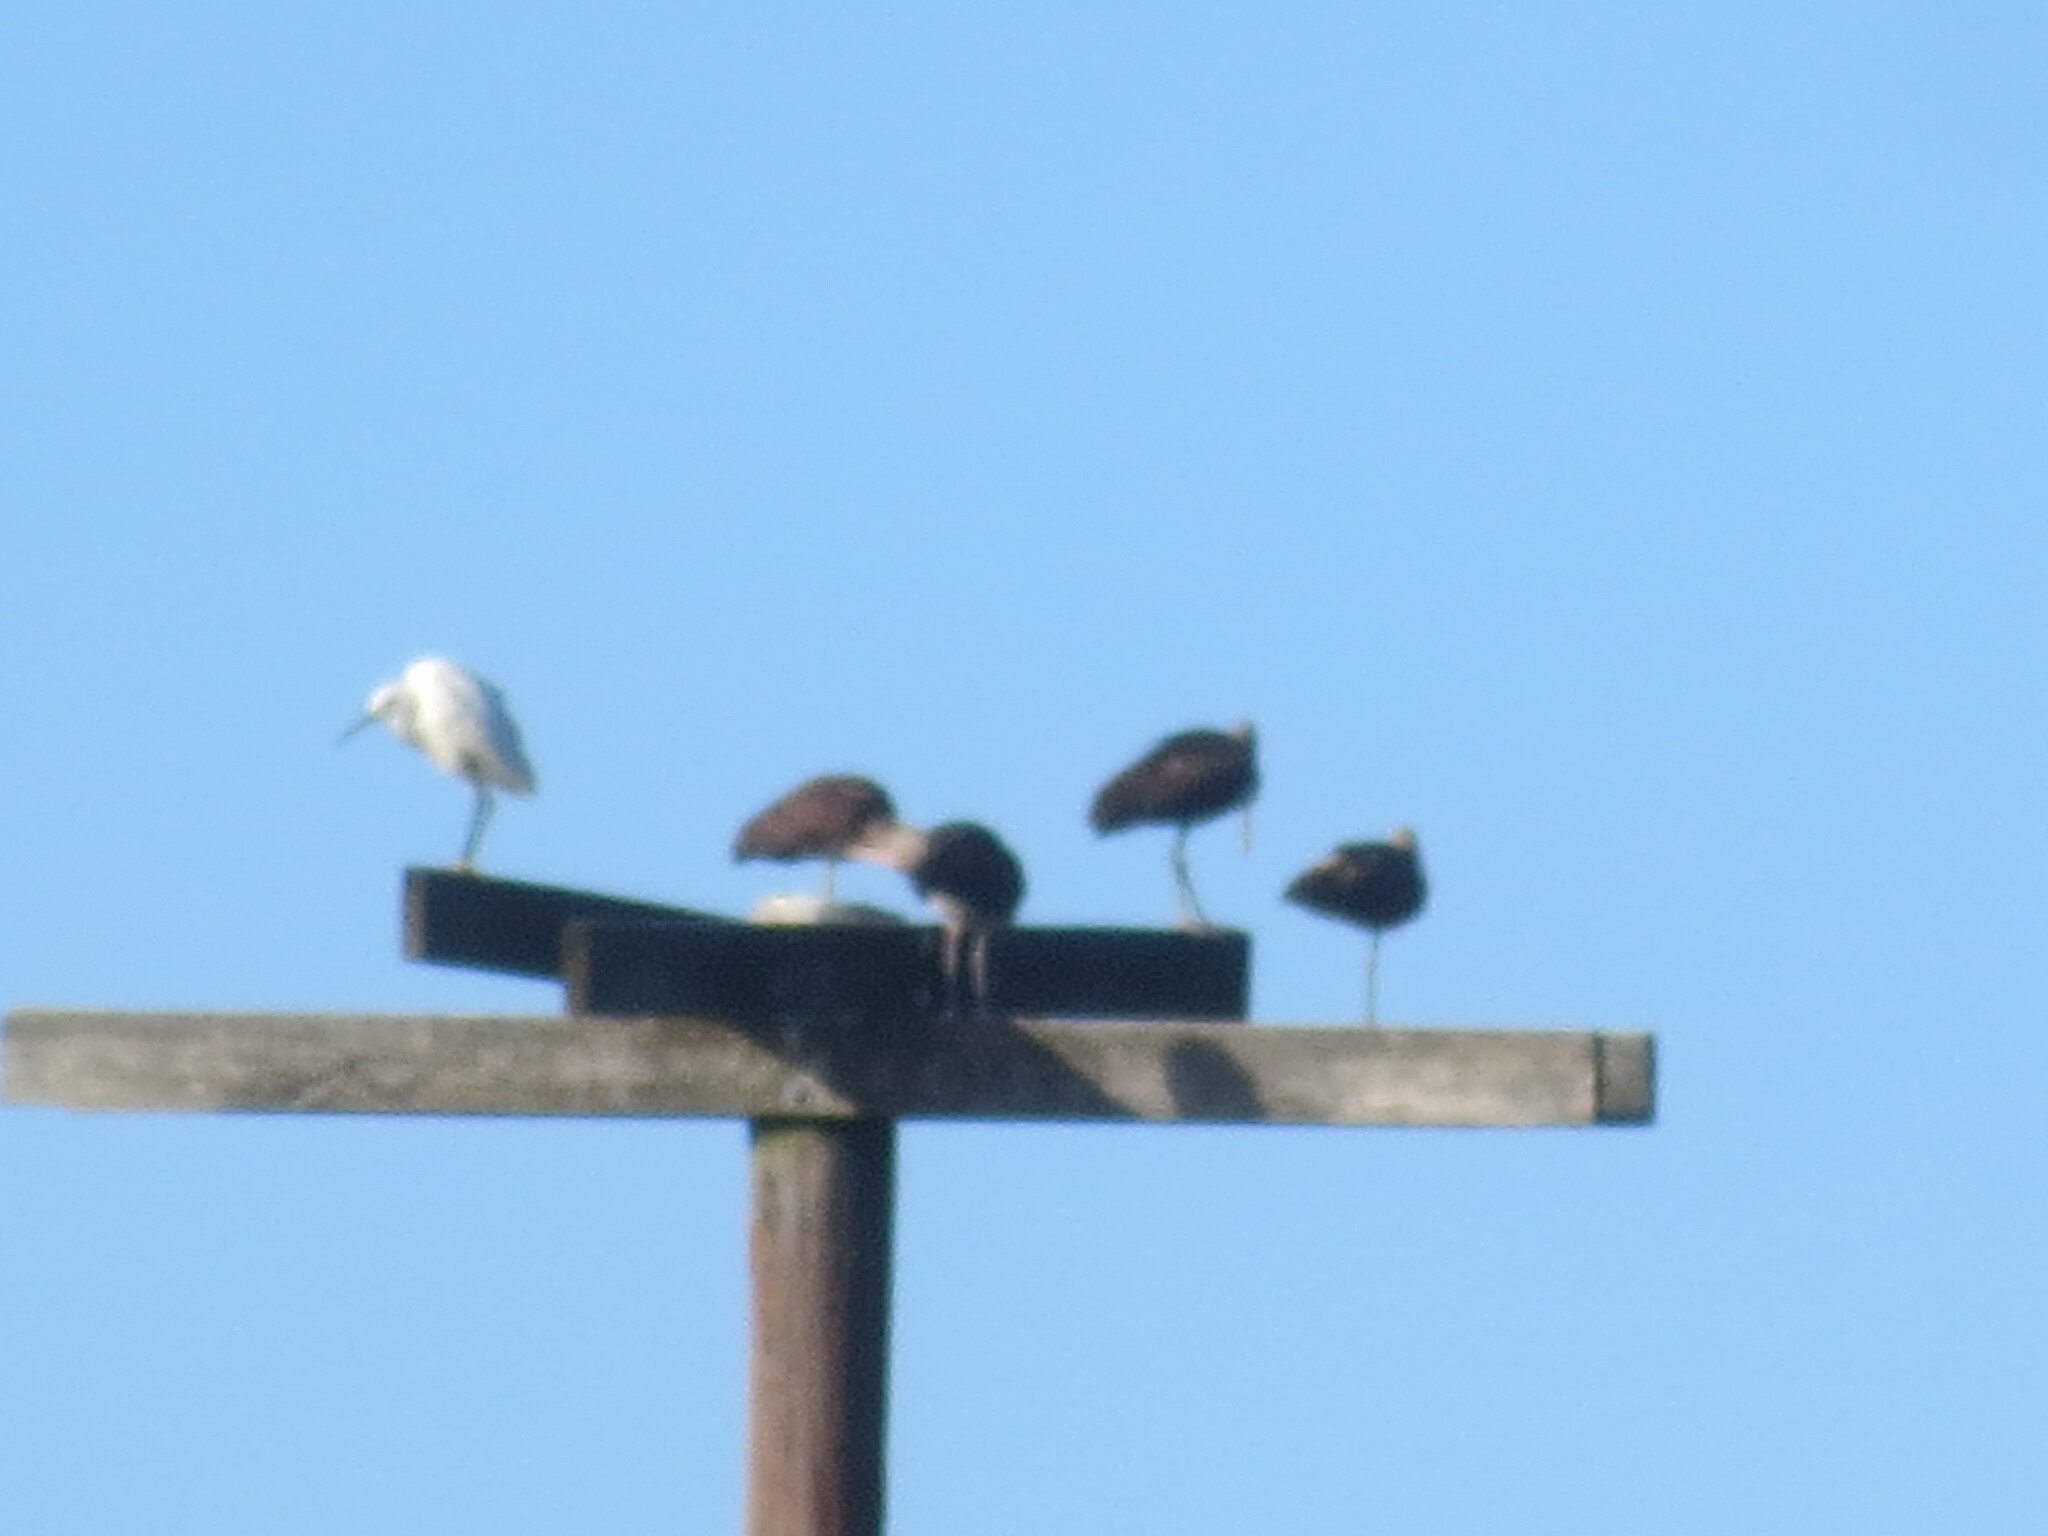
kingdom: Animalia
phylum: Chordata
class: Aves
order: Pelecaniformes
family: Threskiornithidae
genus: Eudocimus
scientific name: Eudocimus albus
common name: White ibis
